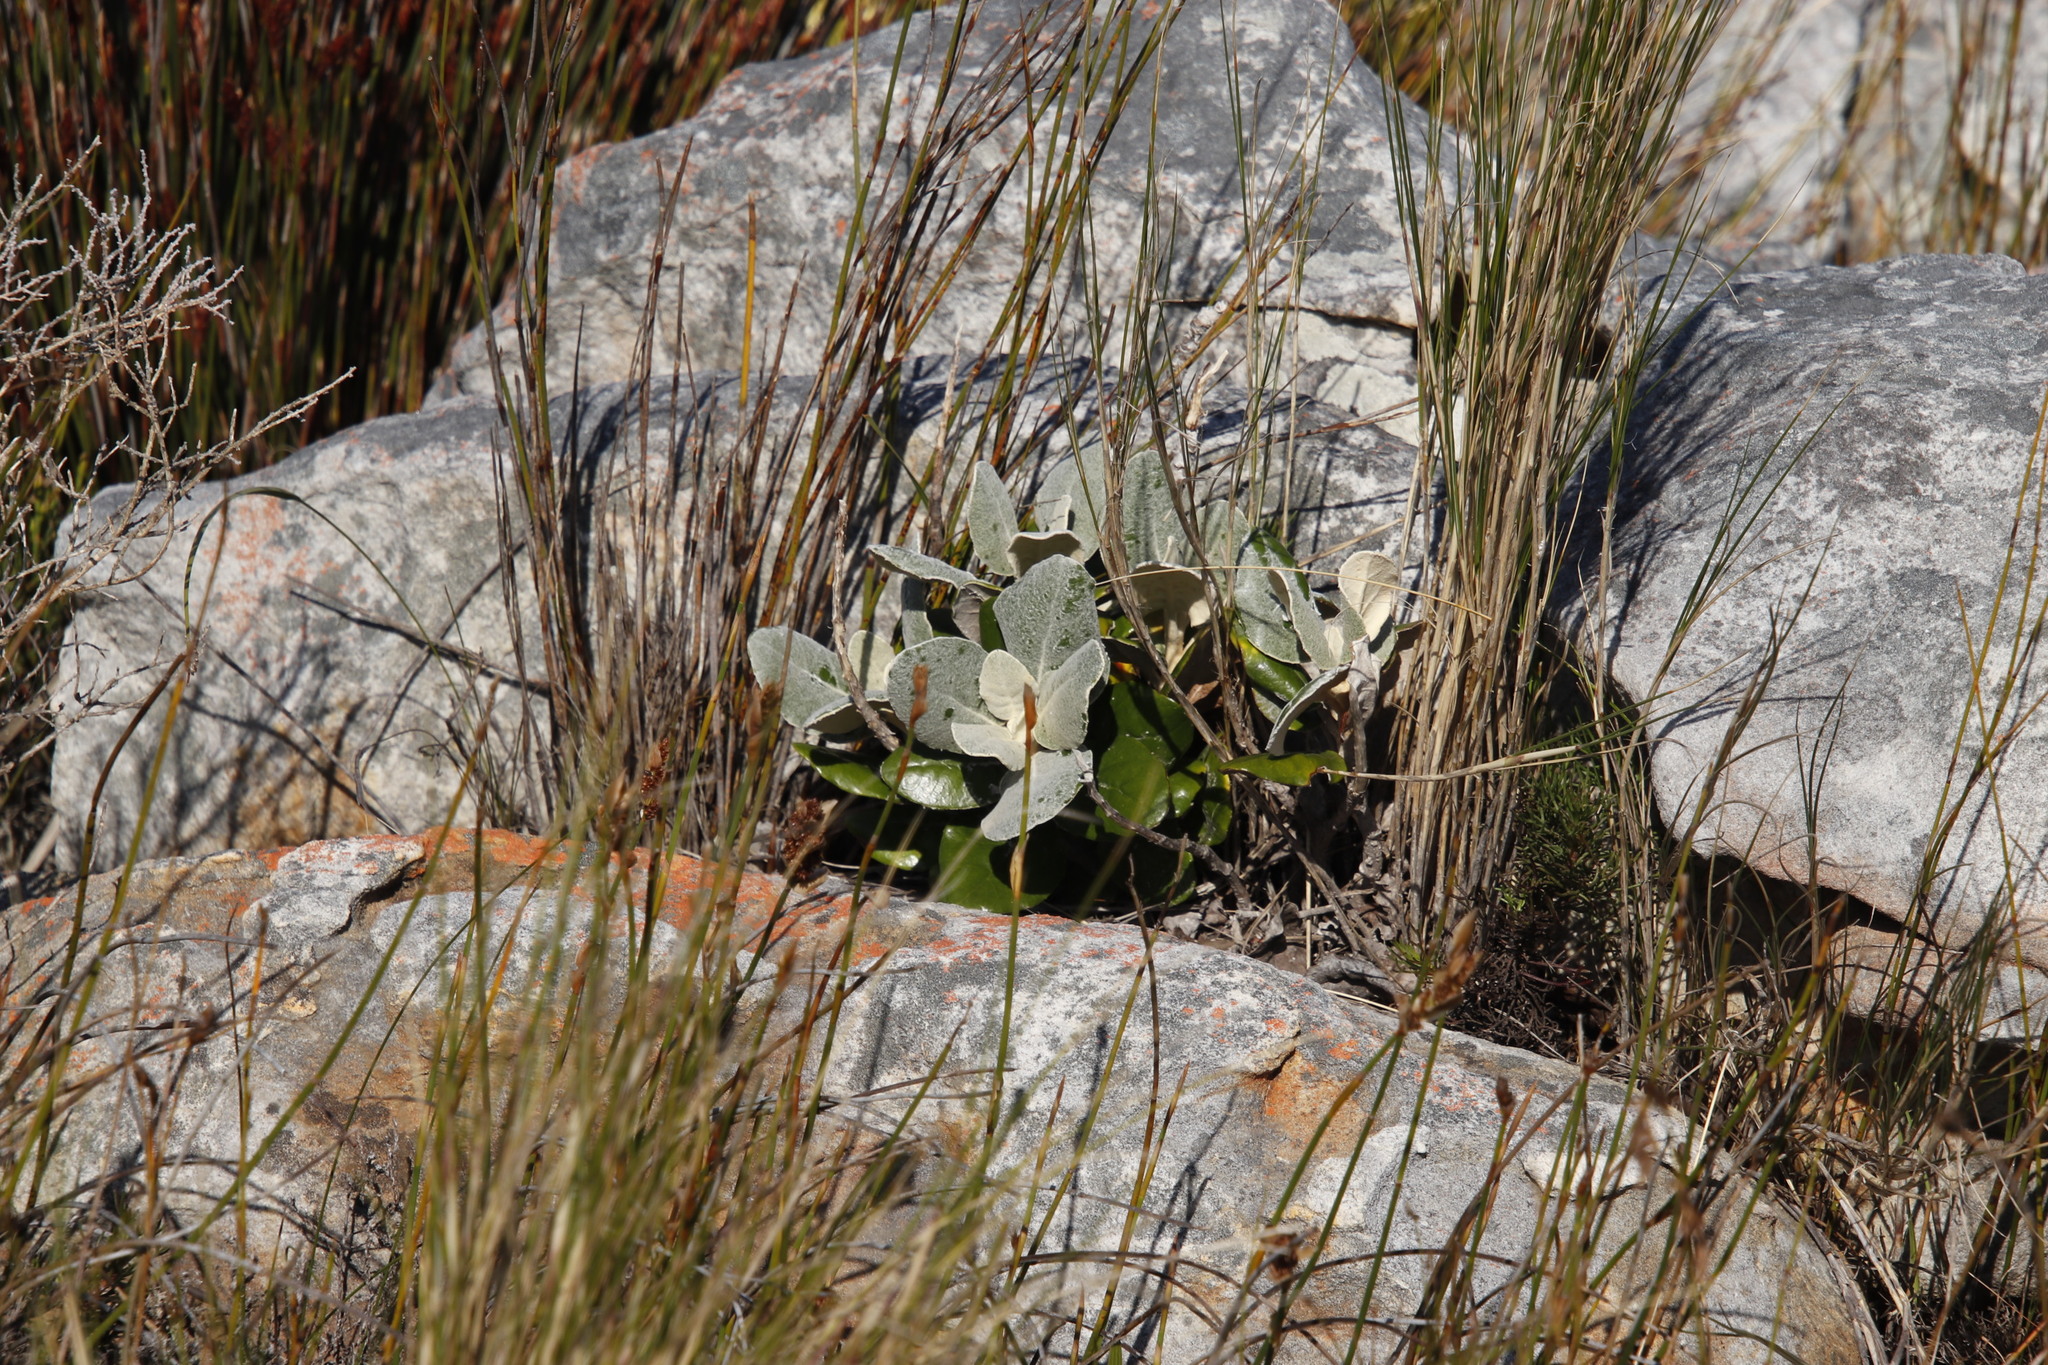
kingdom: Plantae
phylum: Tracheophyta
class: Magnoliopsida
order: Asterales
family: Asteraceae
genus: Capelio
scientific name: Capelio tabularis
